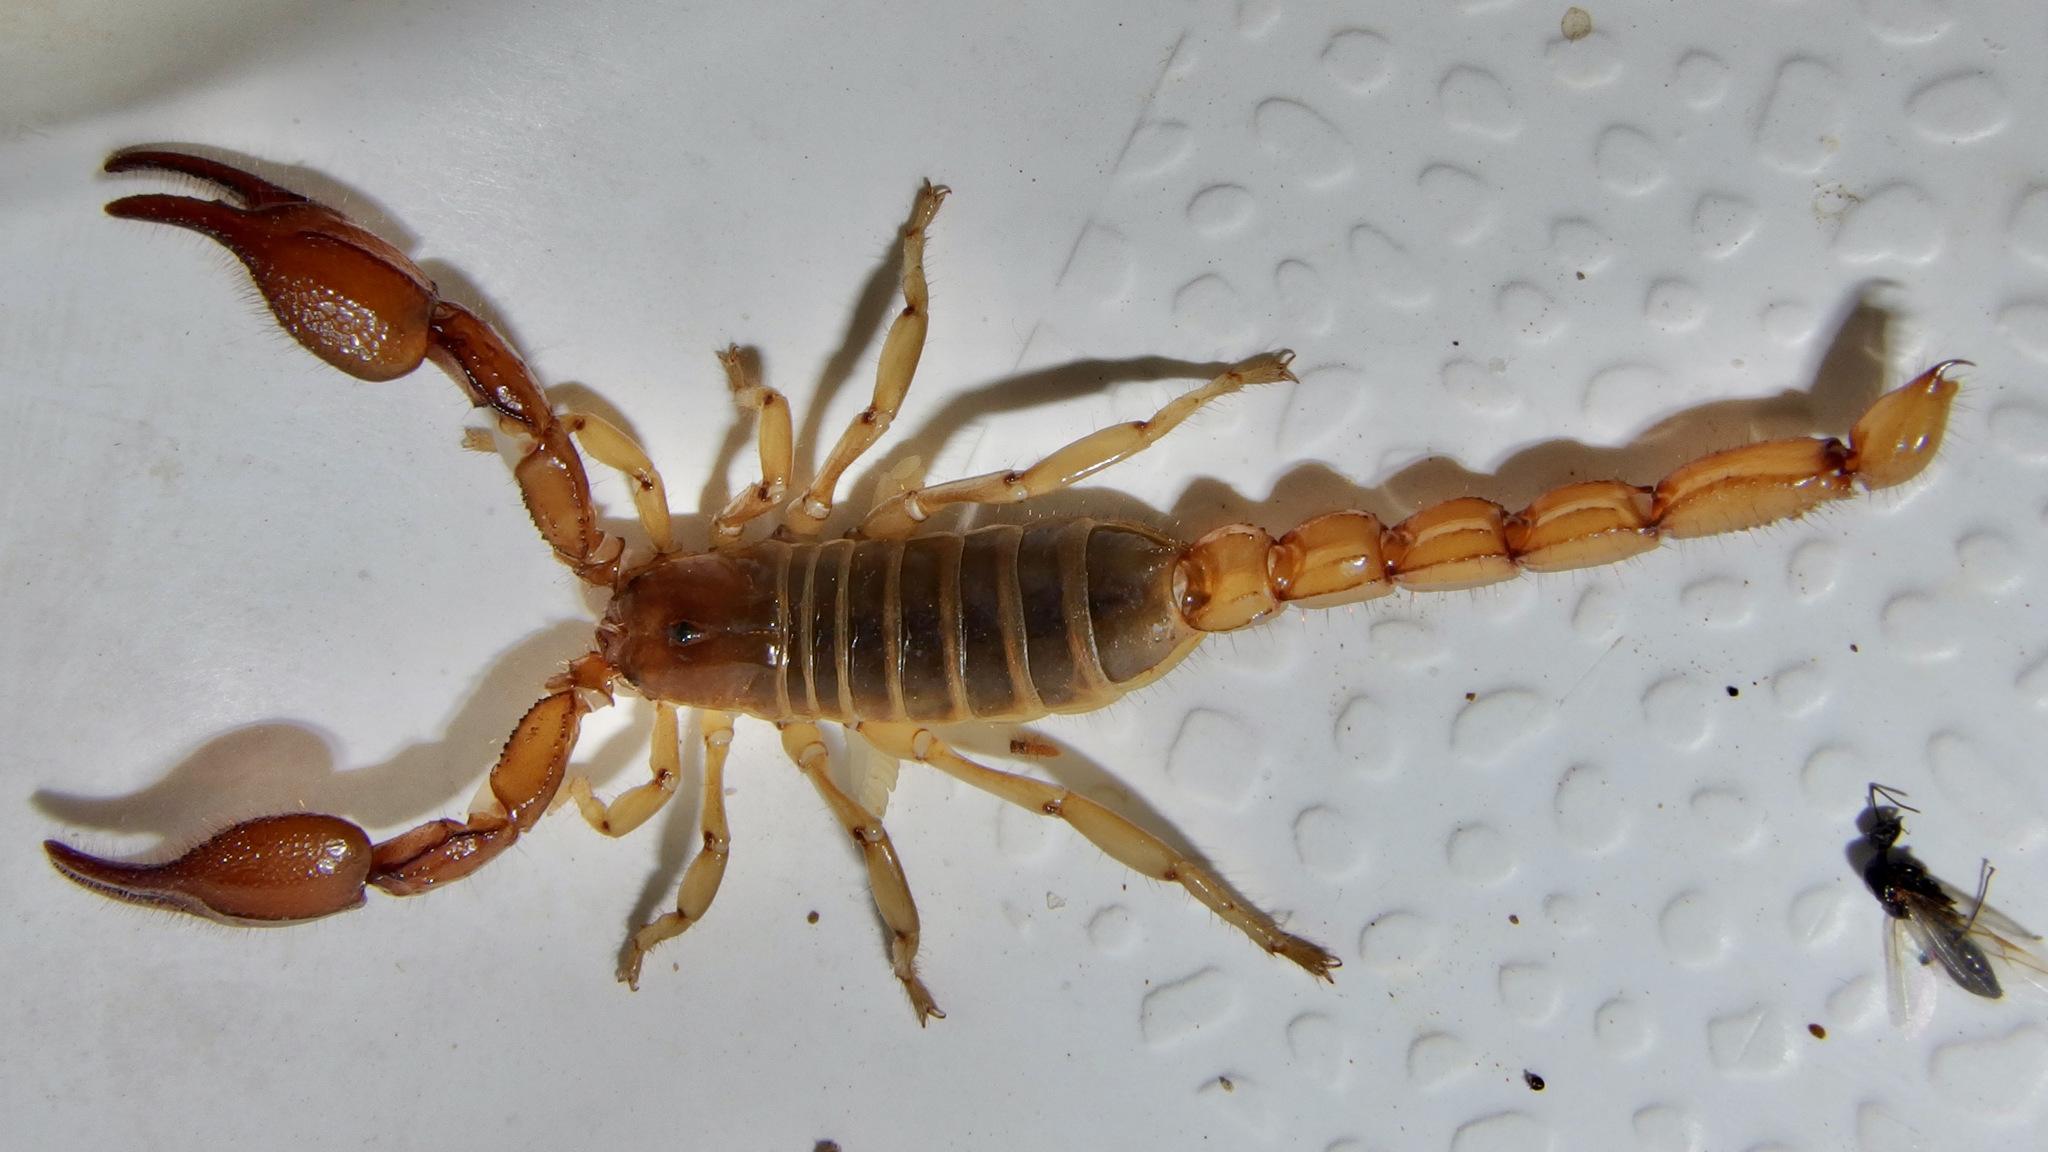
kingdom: Animalia
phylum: Arthropoda
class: Arachnida
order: Scorpiones
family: Diplocentridae
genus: Diplocentrus
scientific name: Diplocentrus spitzeri
